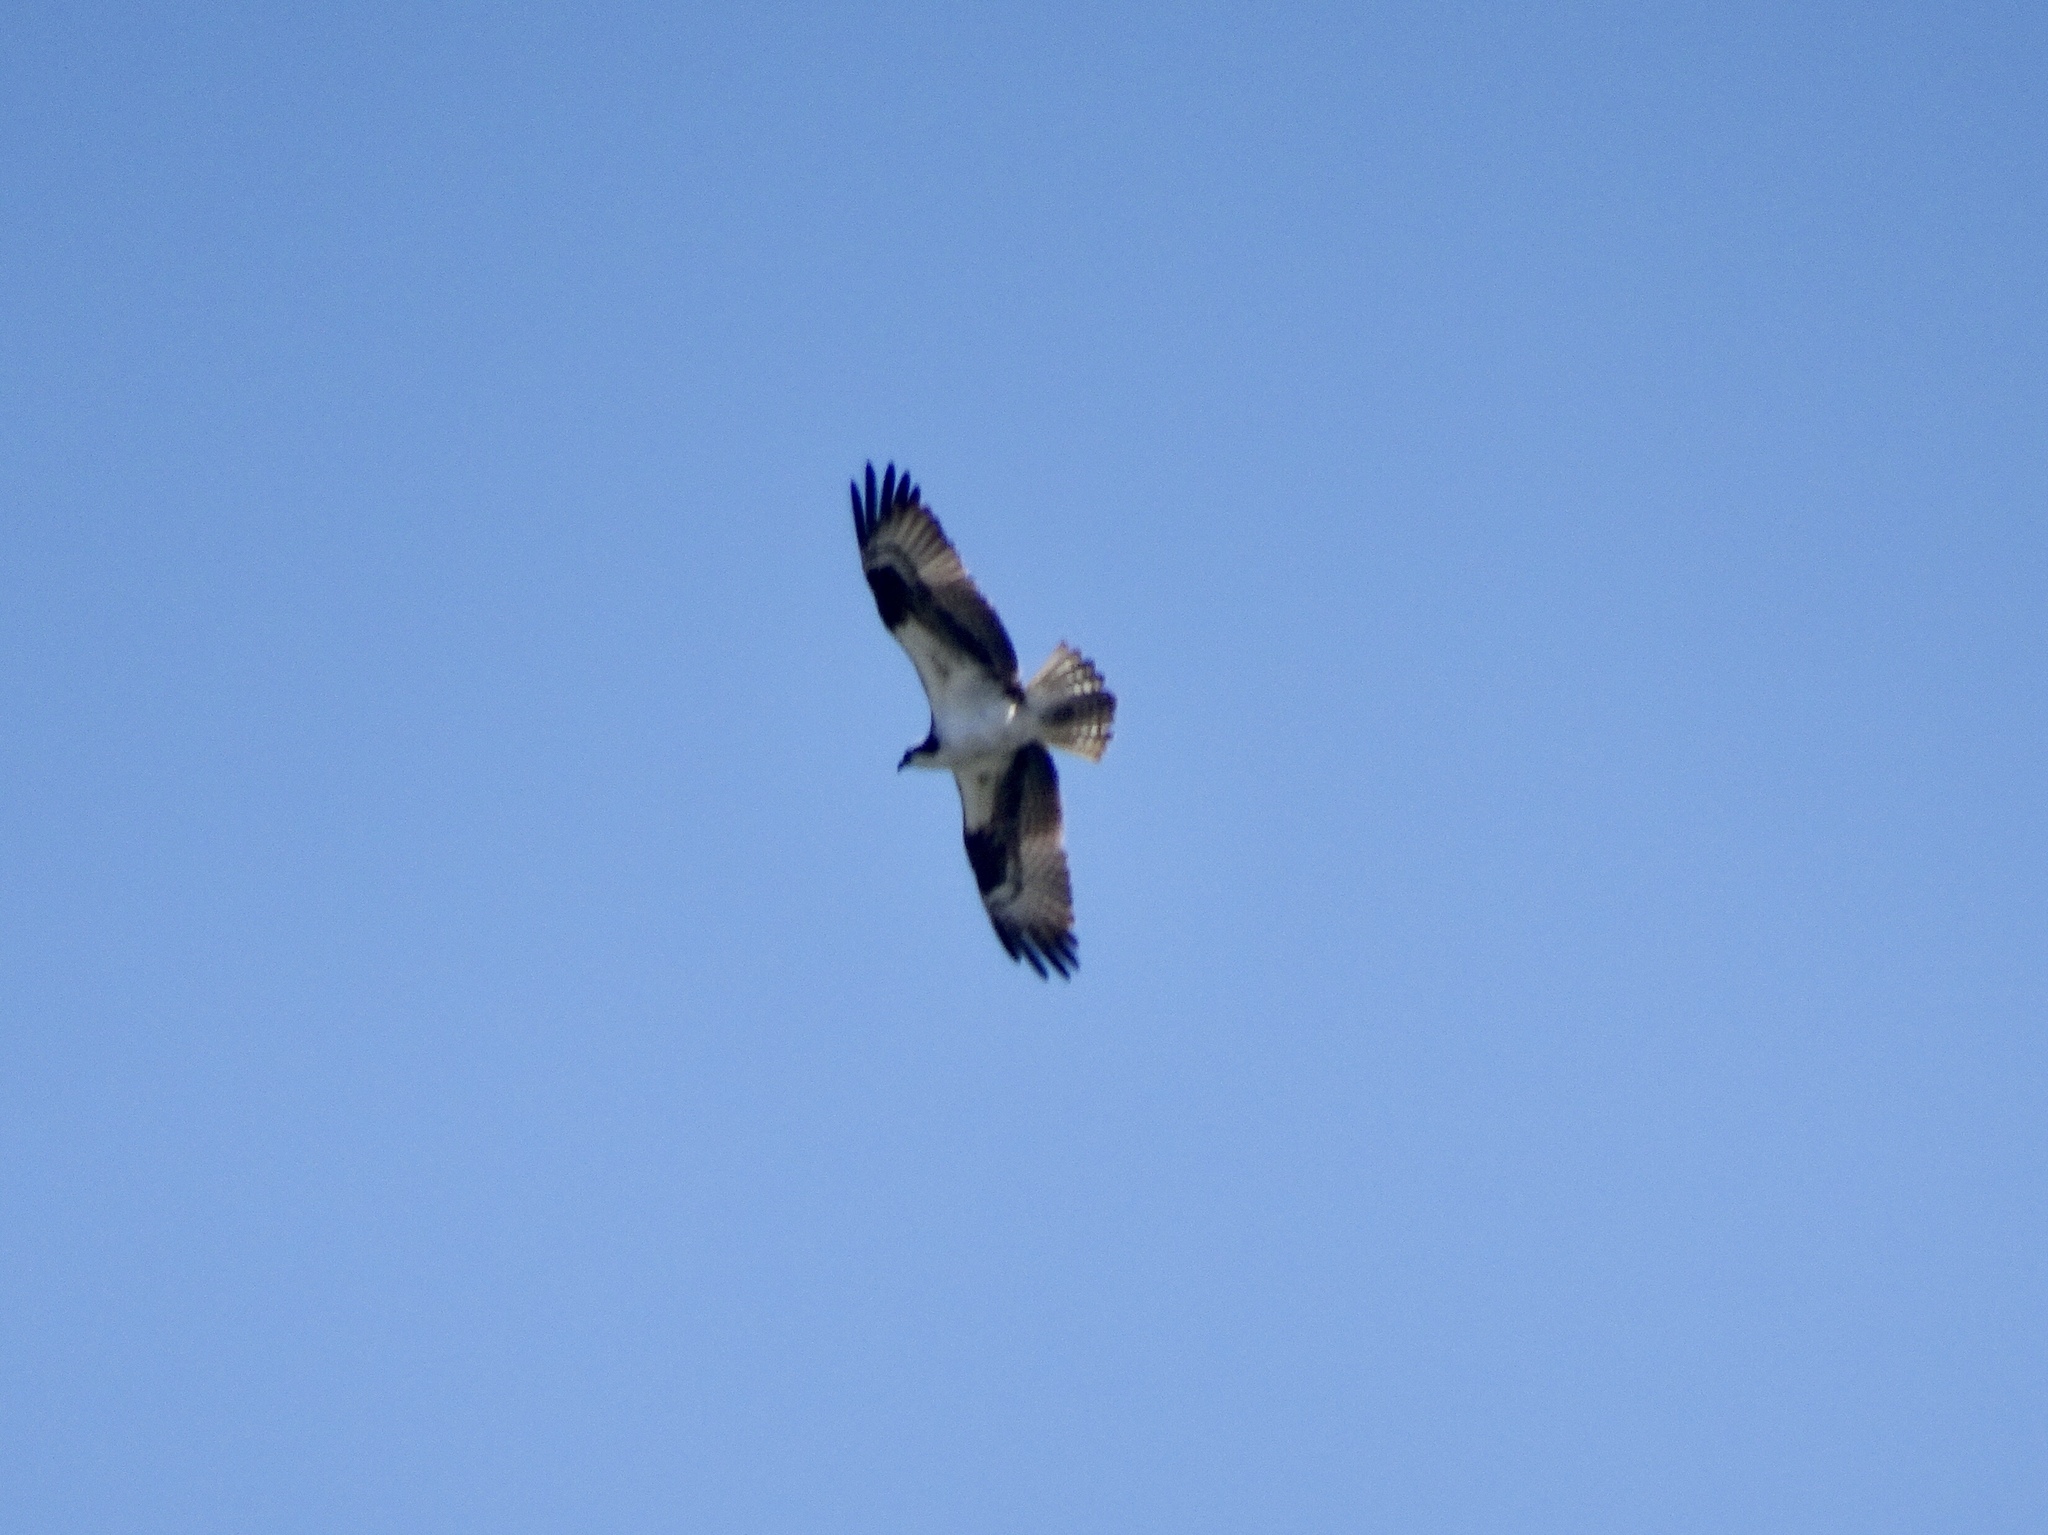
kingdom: Animalia
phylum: Chordata
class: Aves
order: Accipitriformes
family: Pandionidae
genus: Pandion
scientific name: Pandion haliaetus
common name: Osprey
